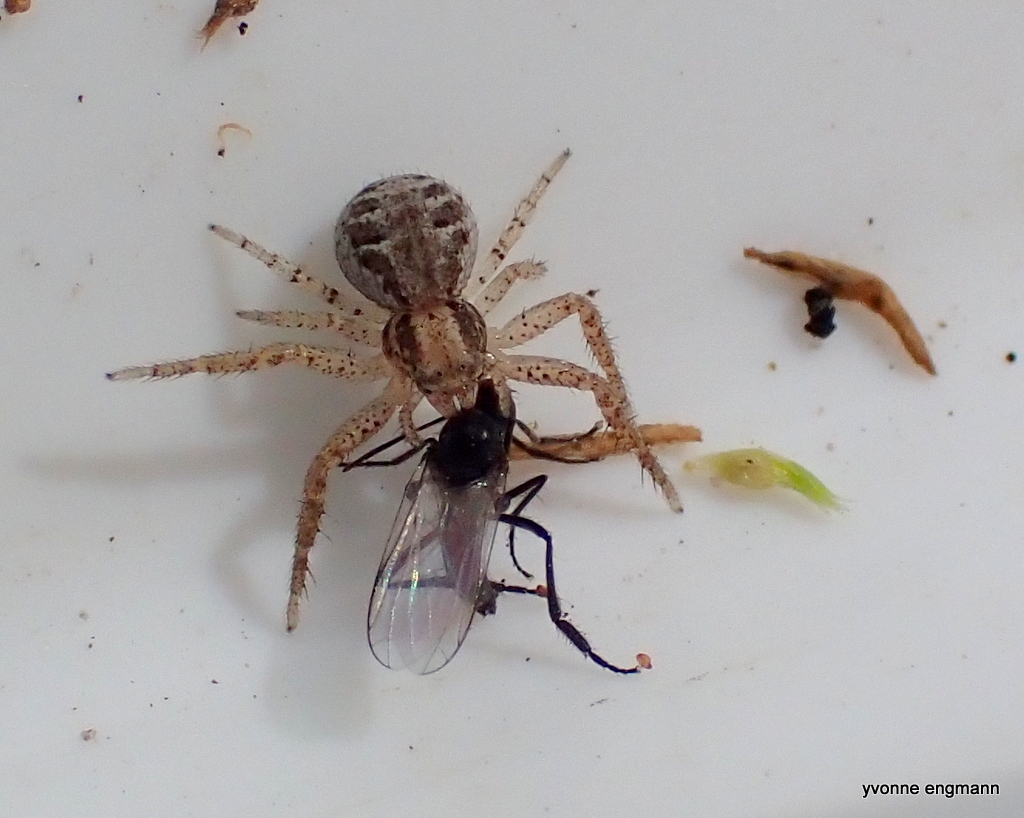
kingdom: Animalia
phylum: Arthropoda
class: Arachnida
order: Araneae
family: Thomisidae
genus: Xysticus
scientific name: Xysticus
